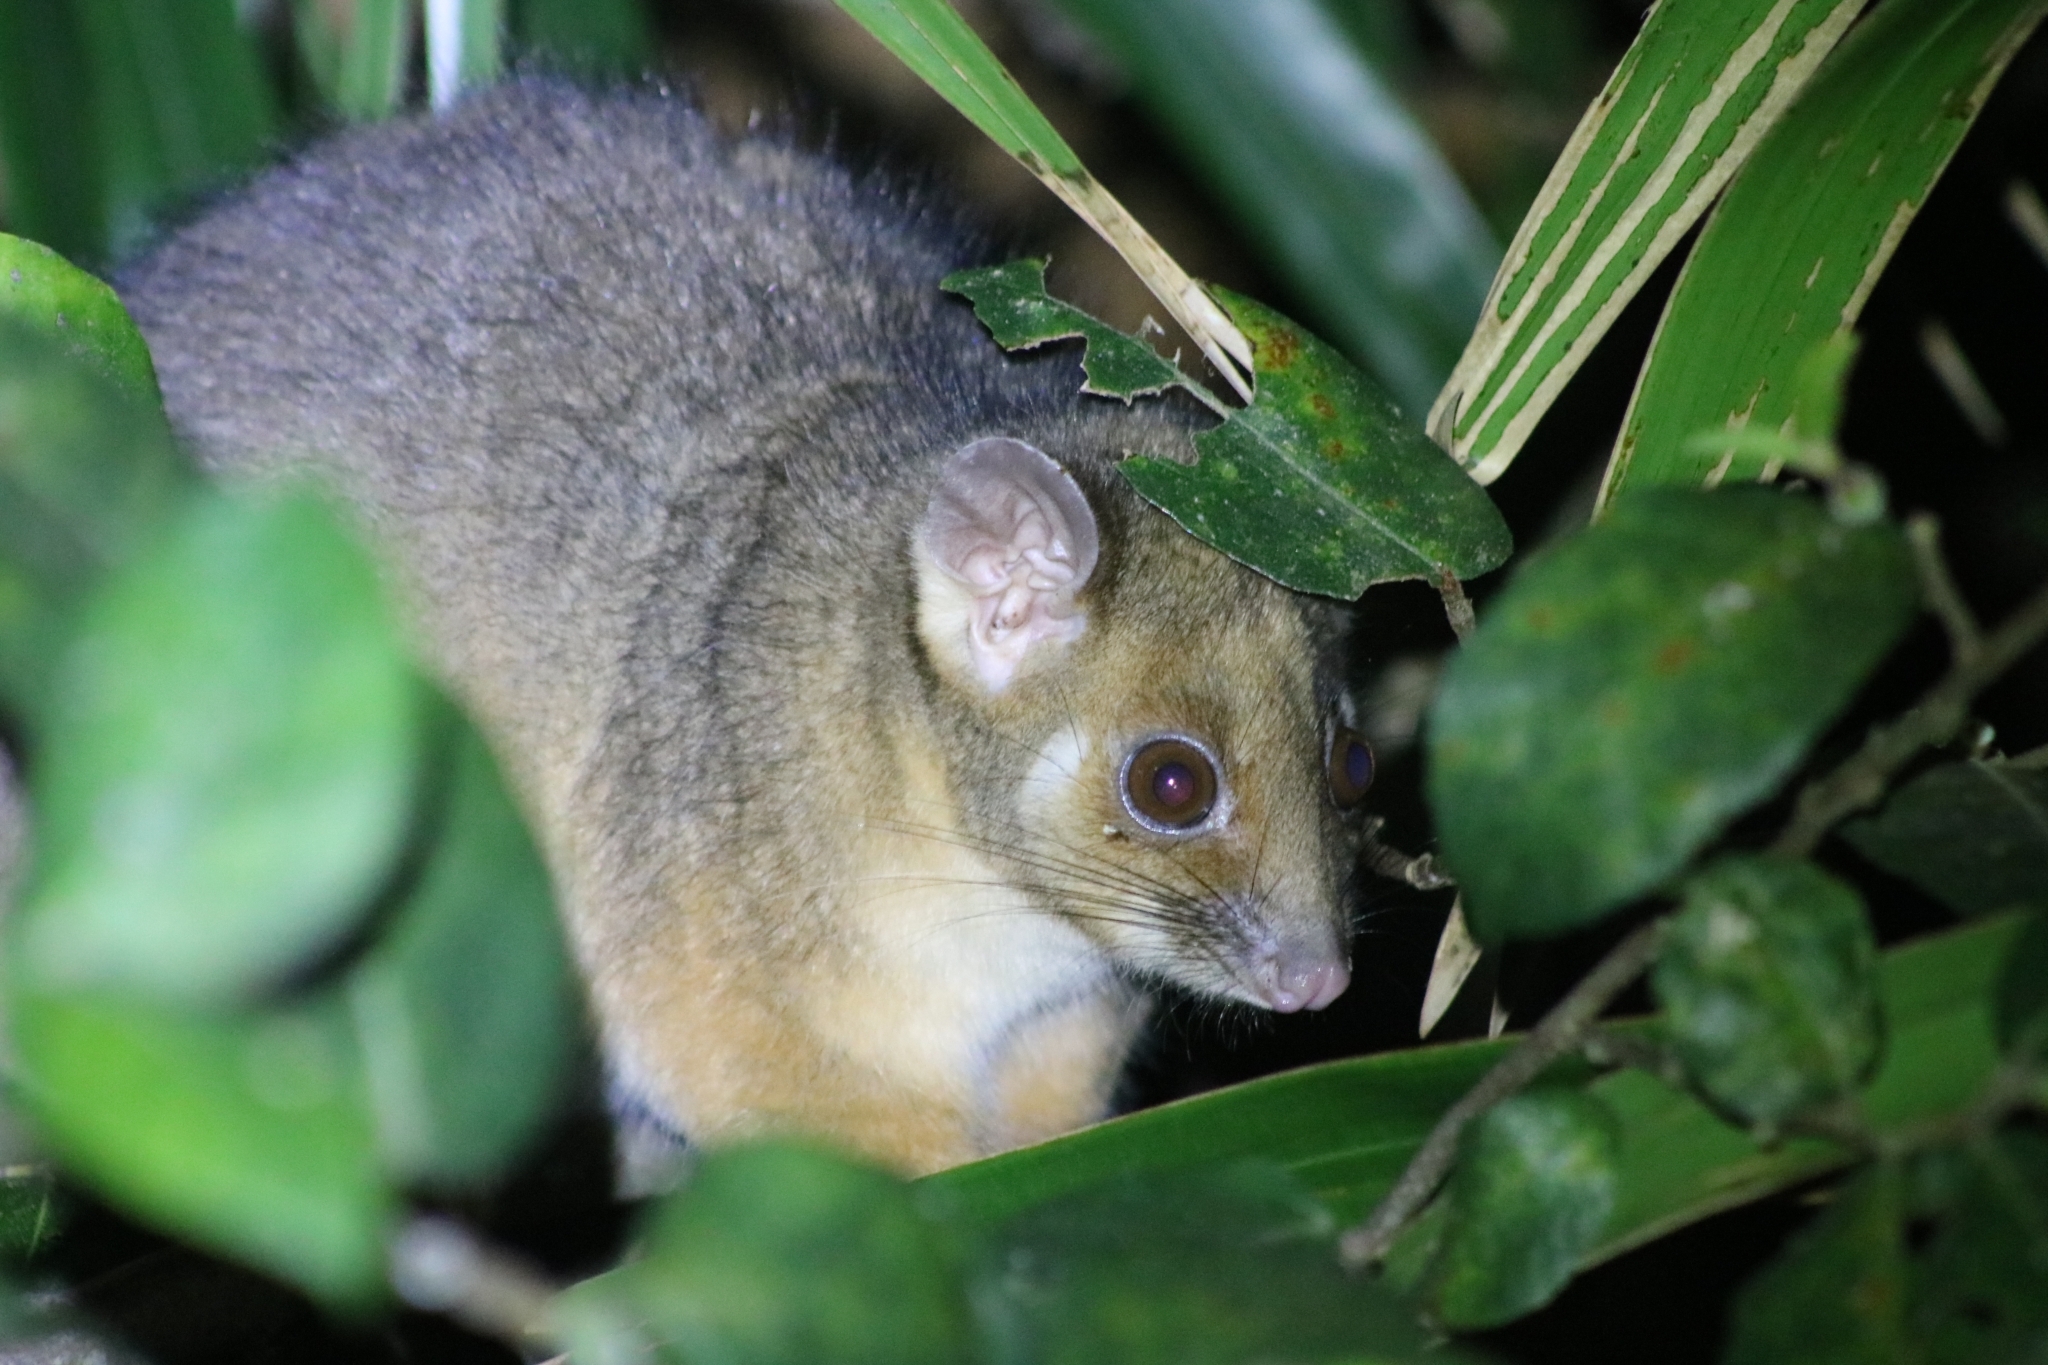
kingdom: Animalia
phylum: Chordata
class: Mammalia
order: Diprotodontia
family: Pseudocheiridae
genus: Pseudocheirus
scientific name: Pseudocheirus peregrinus
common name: Common ringtail possum
